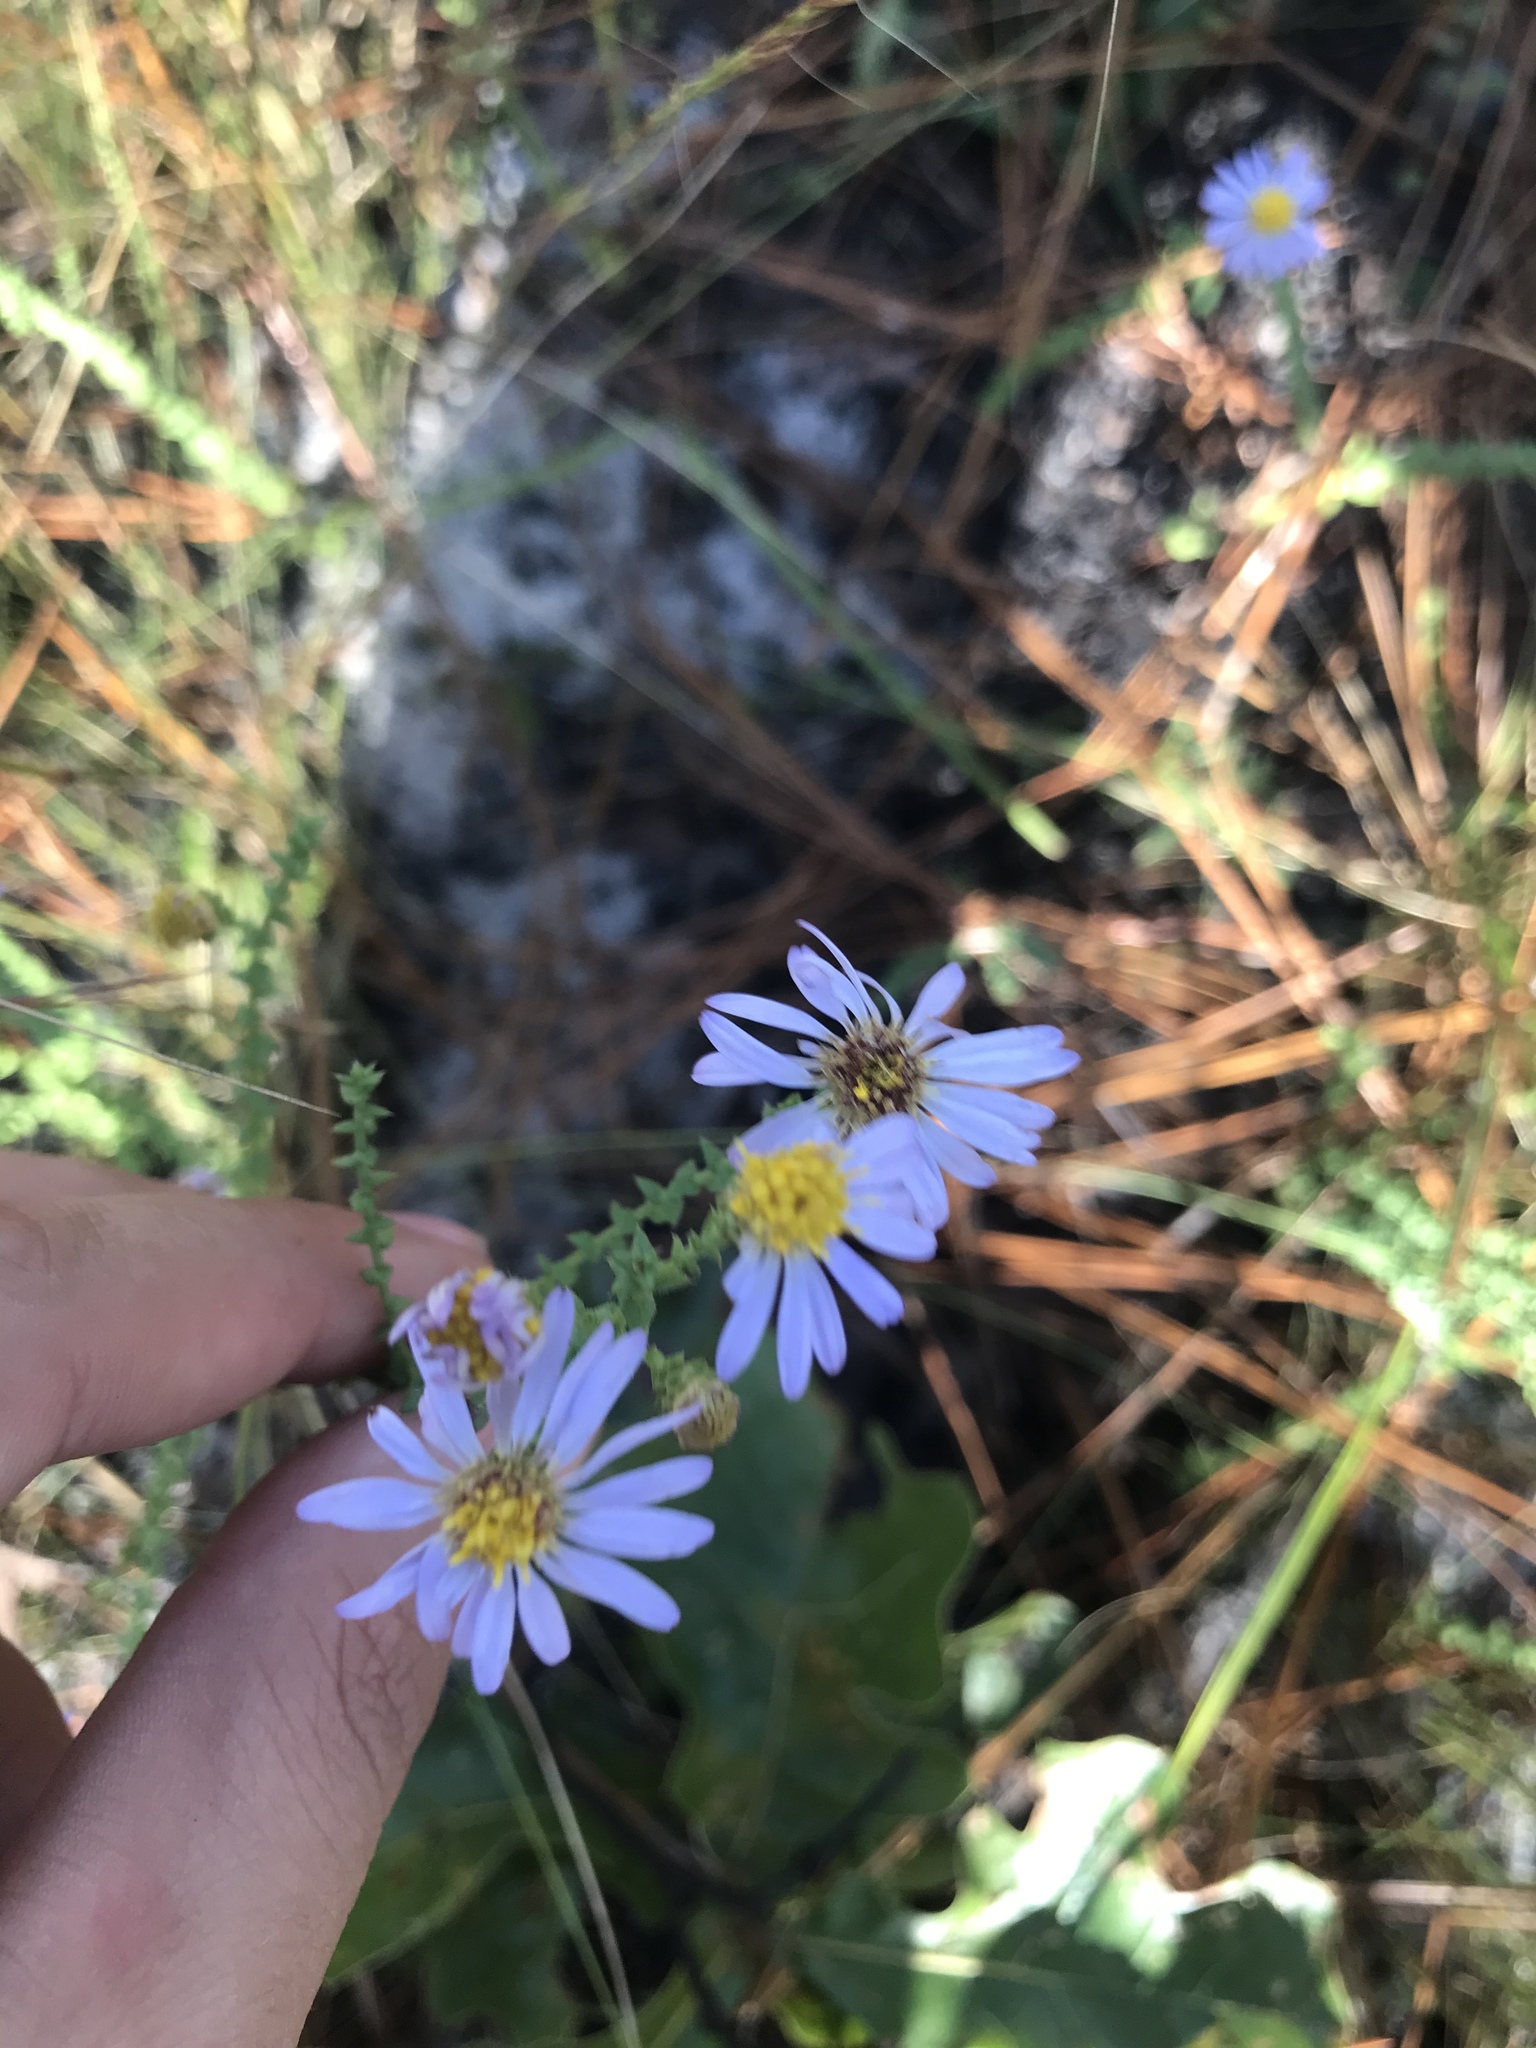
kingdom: Plantae
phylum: Tracheophyta
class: Magnoliopsida
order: Asterales
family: Asteraceae
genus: Symphyotrichum
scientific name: Symphyotrichum walteri
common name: Walter's aster
